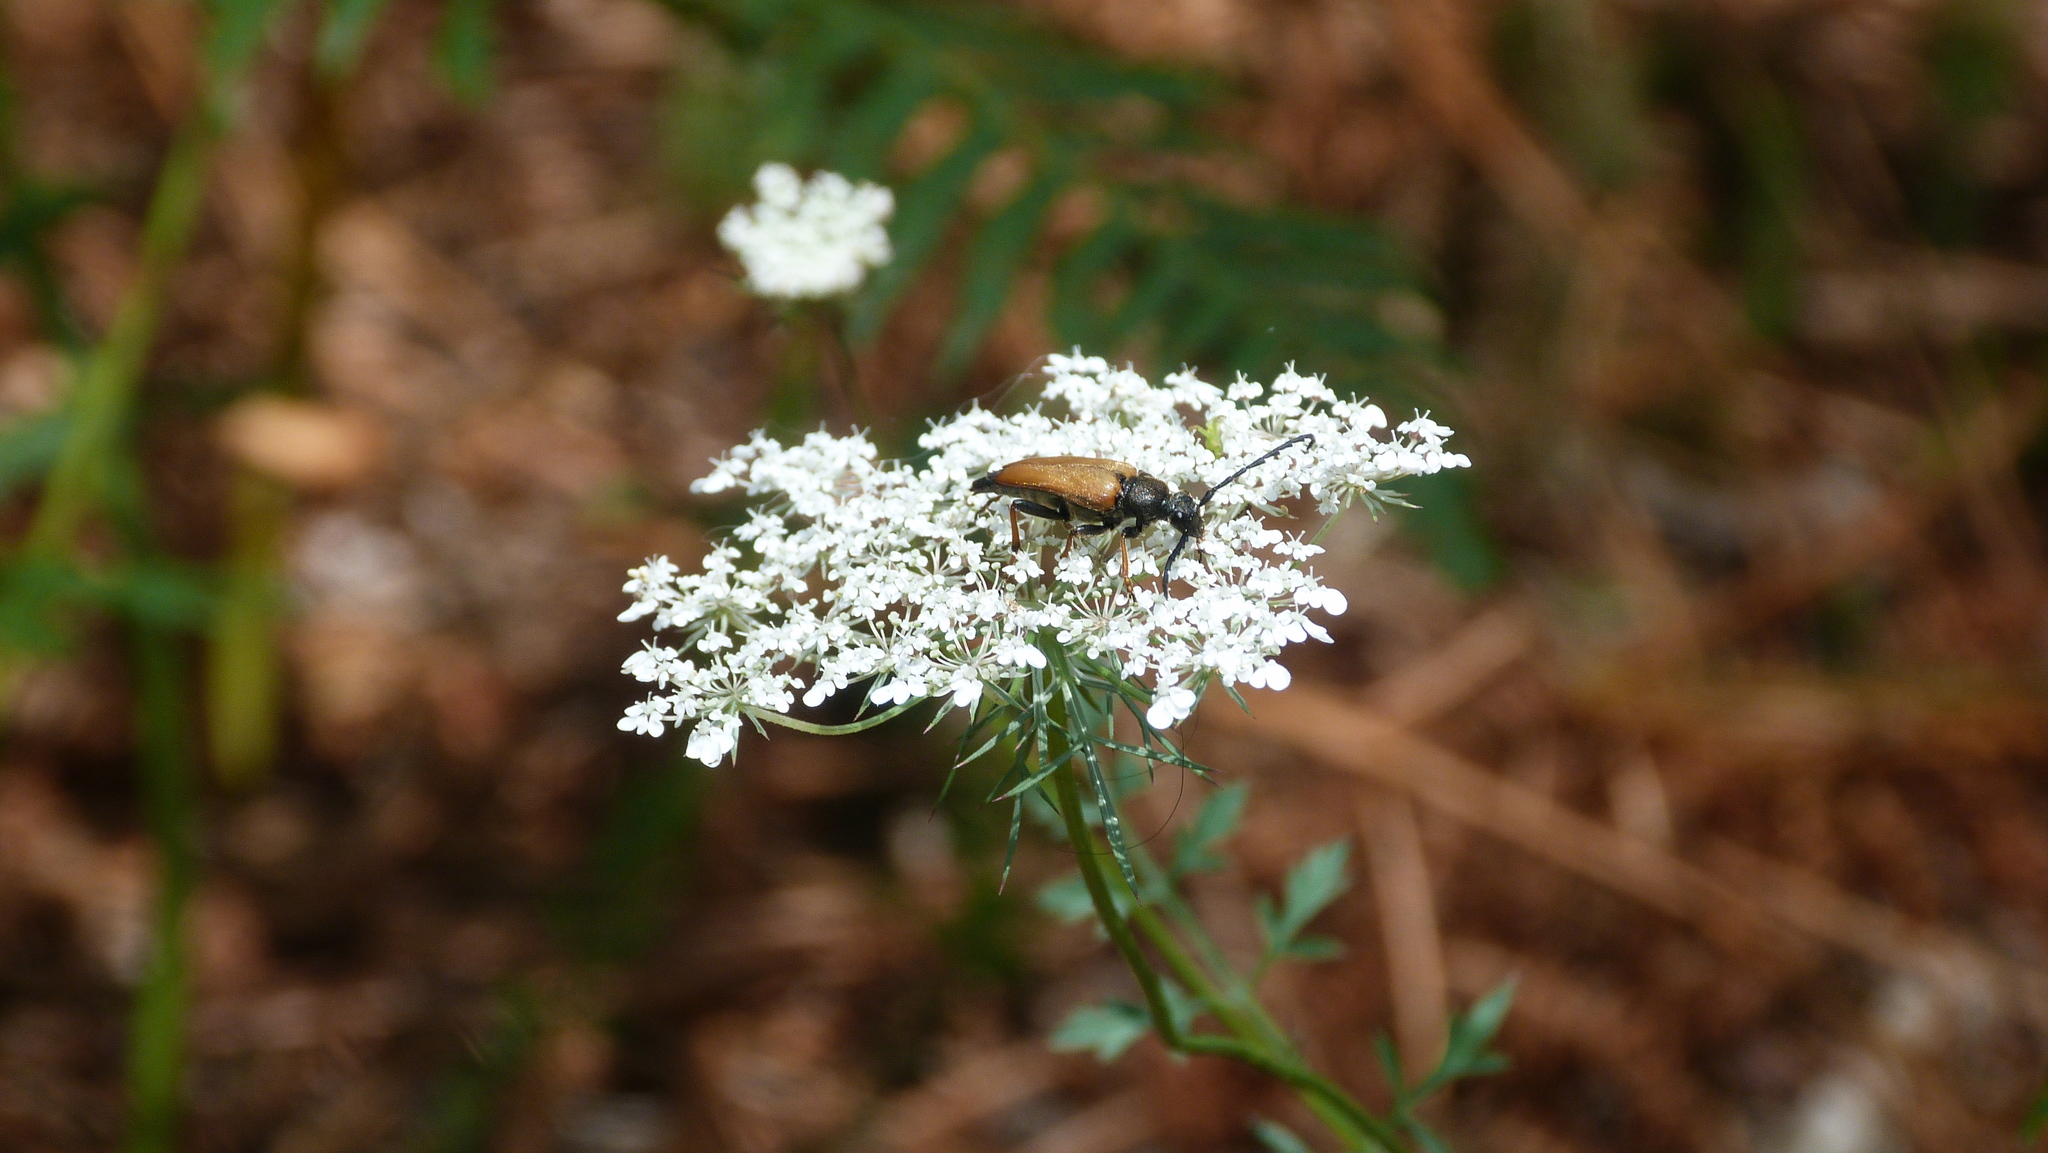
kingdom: Animalia
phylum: Arthropoda
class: Insecta
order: Coleoptera
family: Cerambycidae
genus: Stictoleptura
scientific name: Stictoleptura rubra
